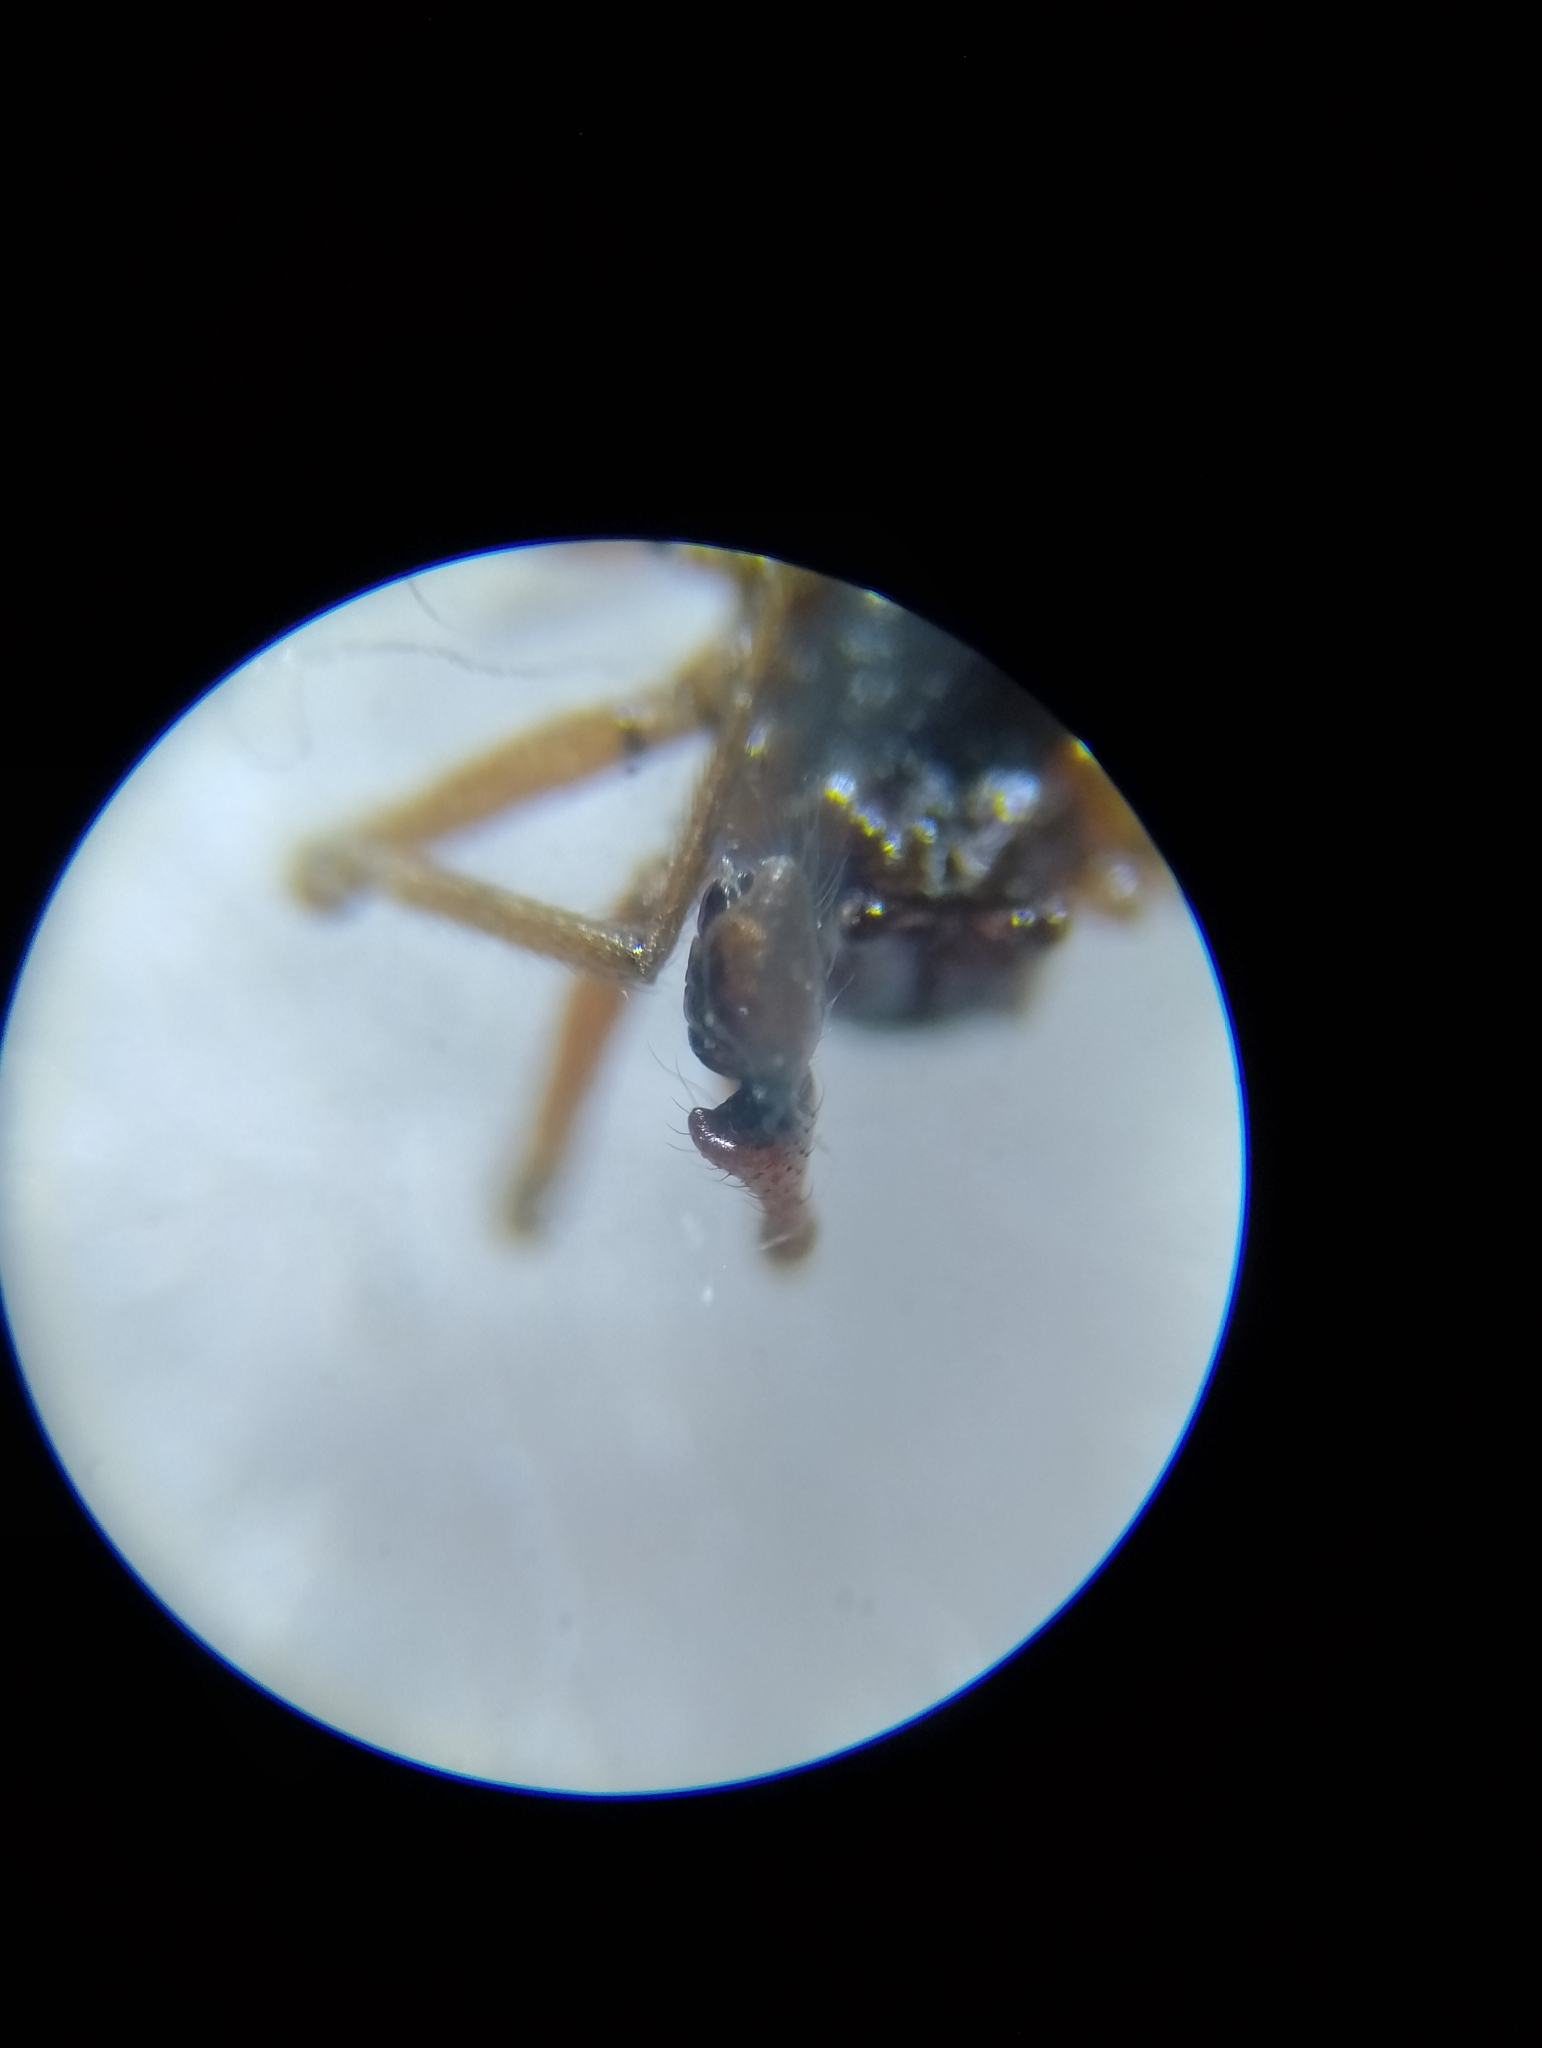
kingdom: Animalia
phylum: Arthropoda
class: Arachnida
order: Araneae
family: Linyphiidae
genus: Erigone
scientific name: Erigone dentipalpis
